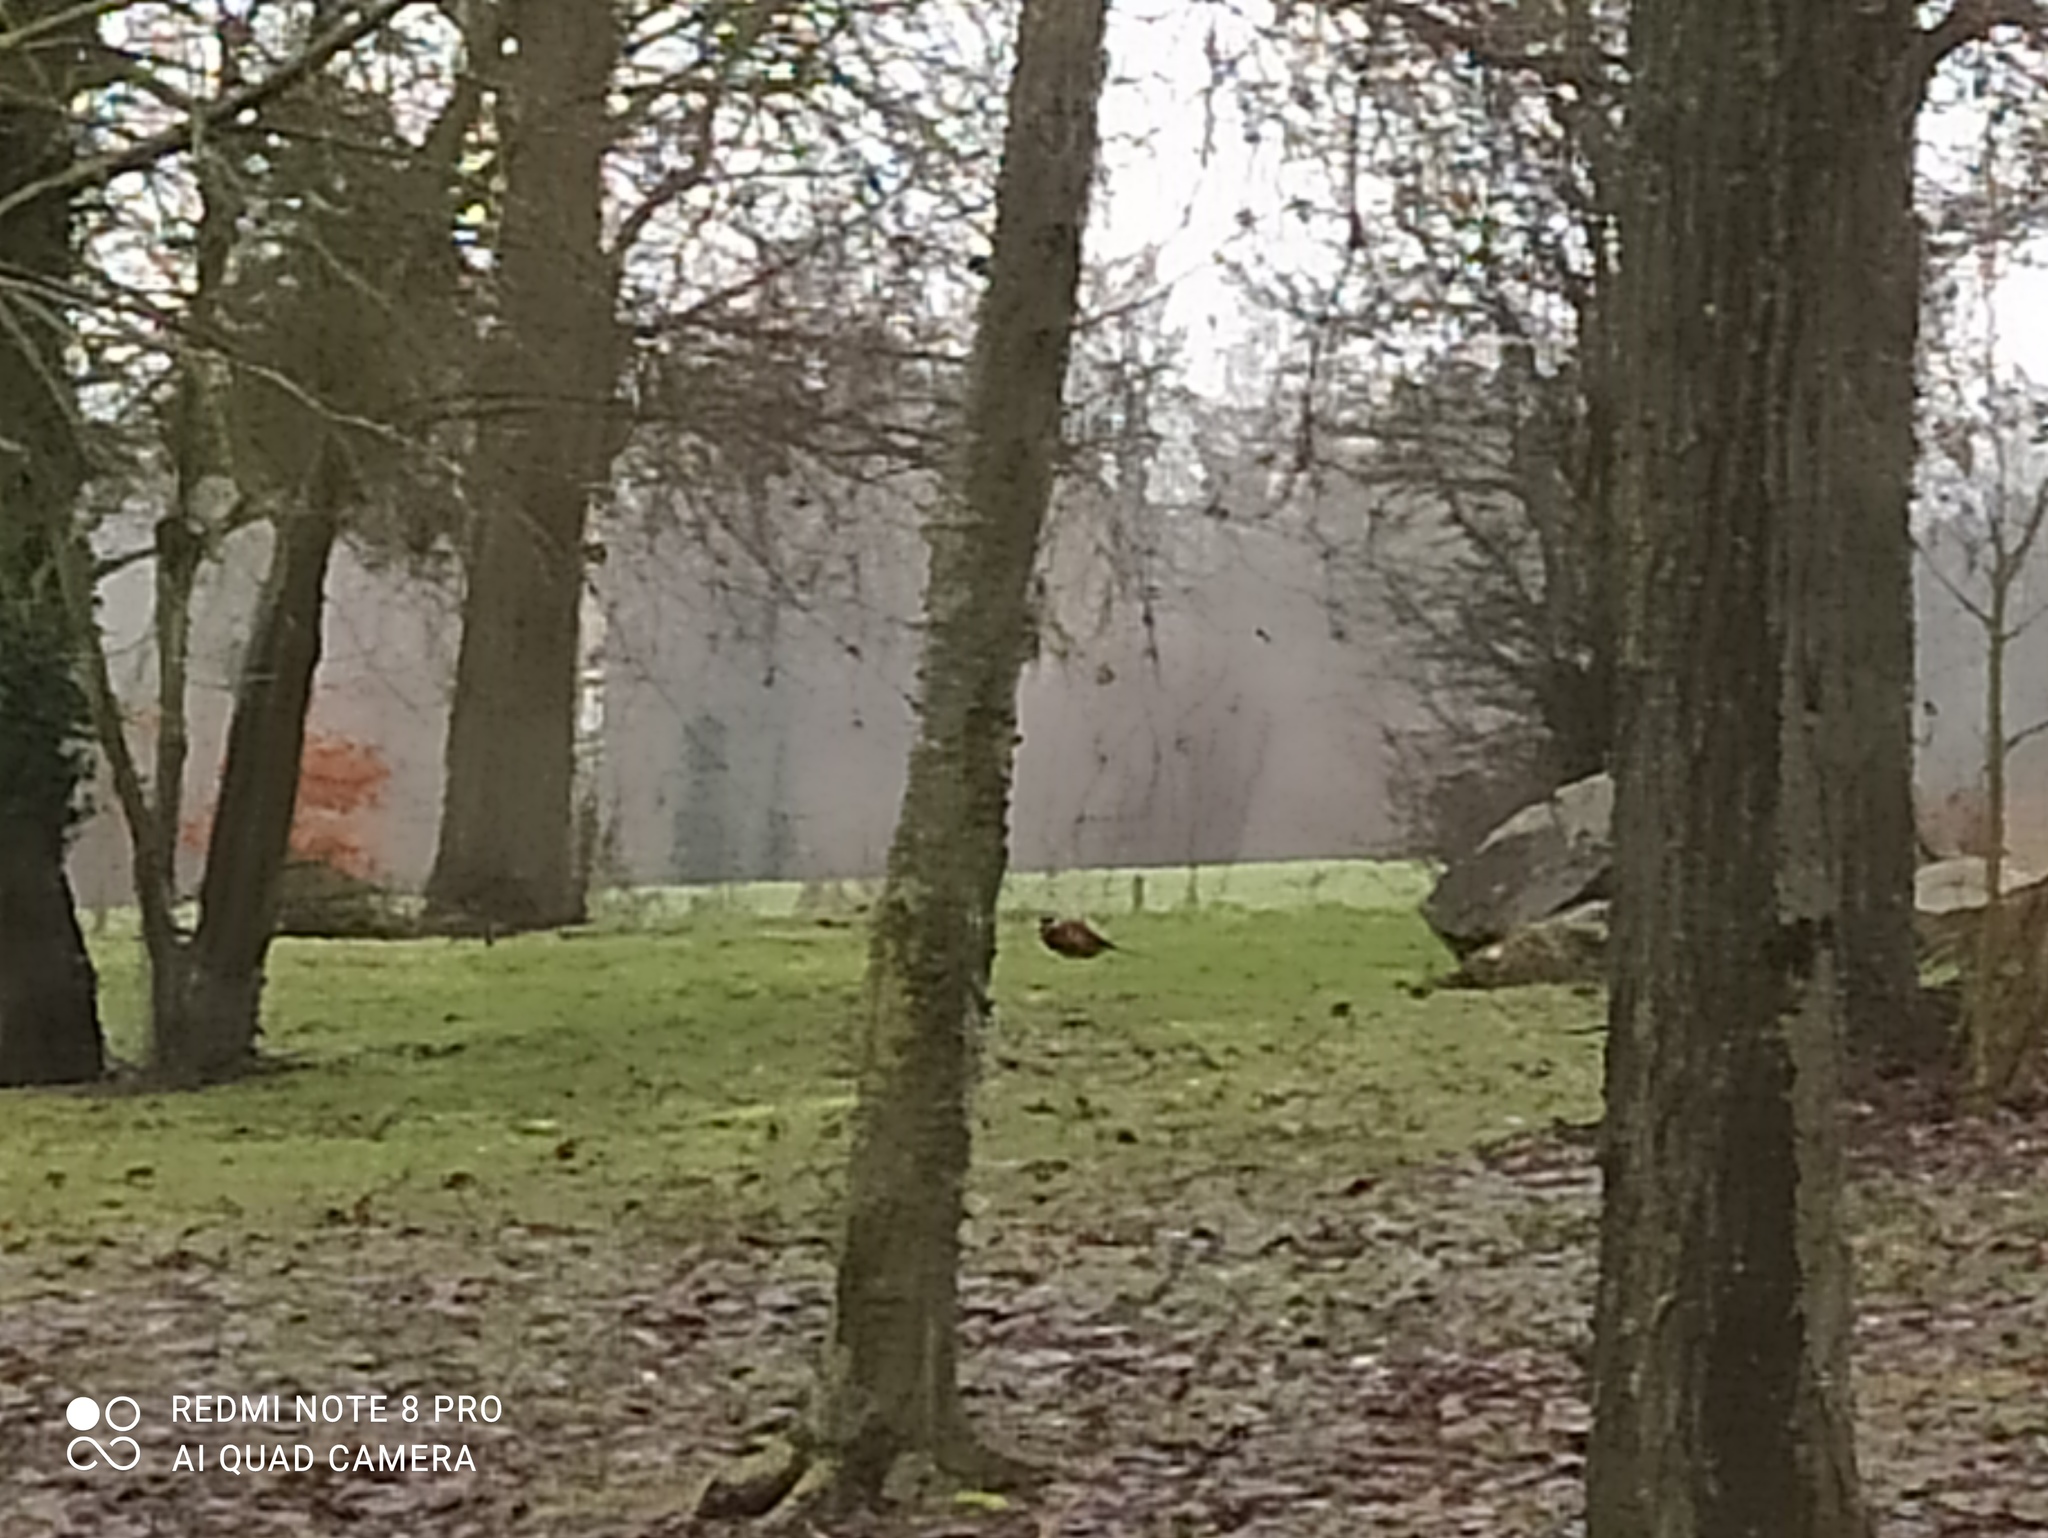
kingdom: Animalia
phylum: Chordata
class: Aves
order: Galliformes
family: Phasianidae
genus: Phasianus
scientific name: Phasianus colchicus
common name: Common pheasant
